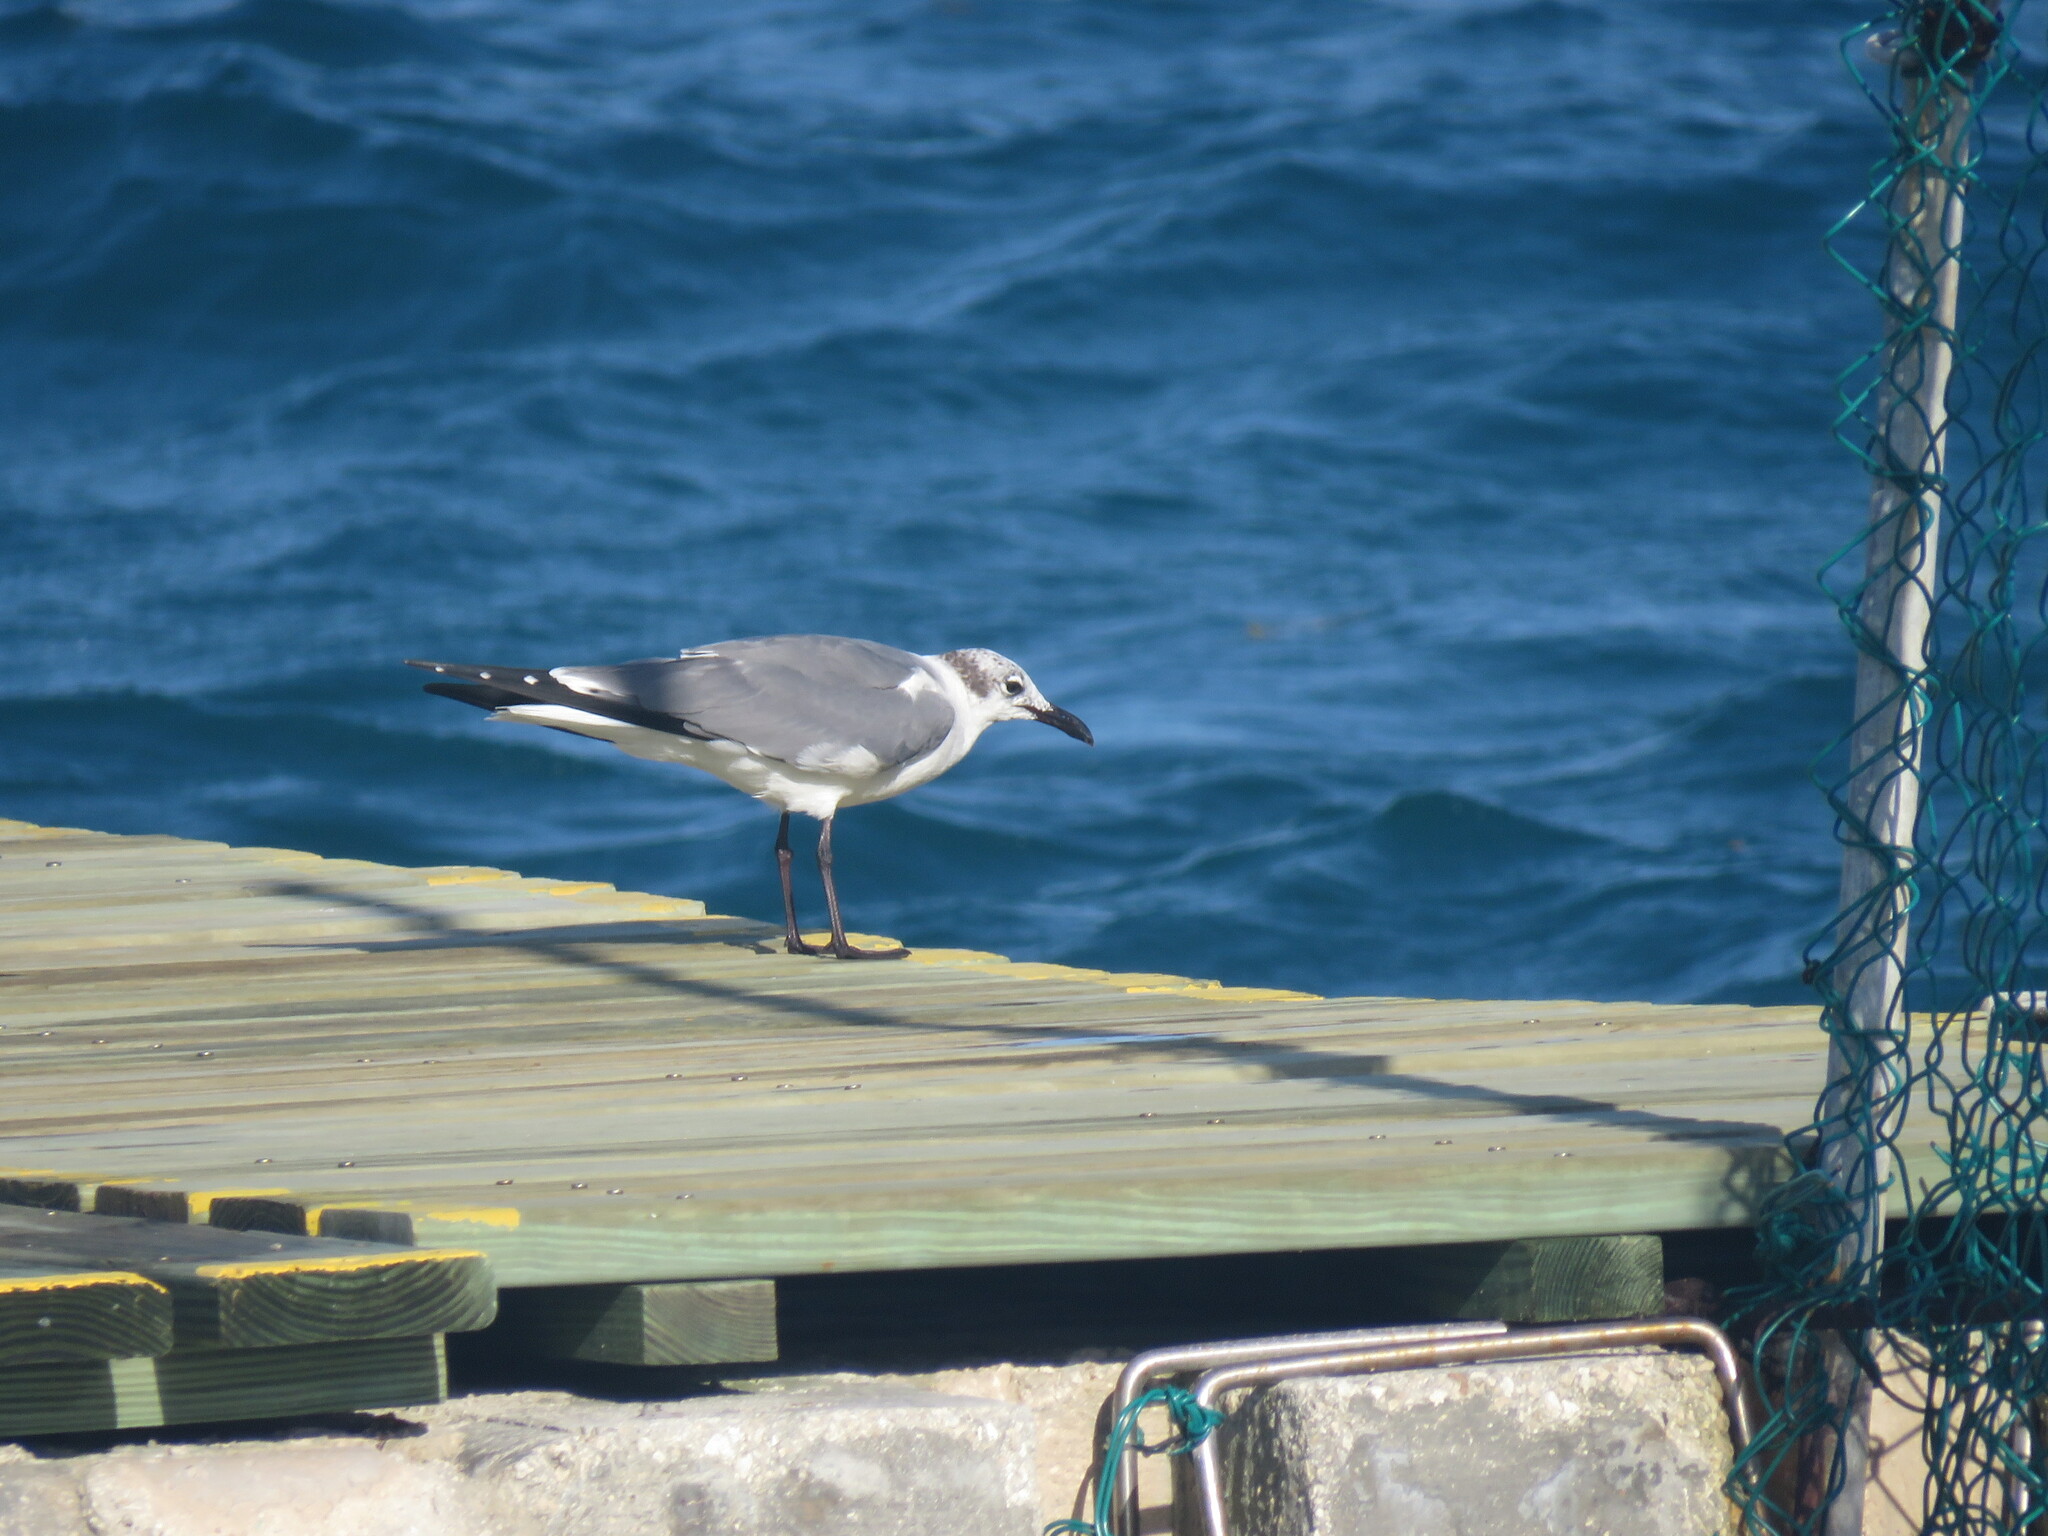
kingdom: Animalia
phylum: Chordata
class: Aves
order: Charadriiformes
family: Laridae
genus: Leucophaeus
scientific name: Leucophaeus atricilla
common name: Laughing gull
